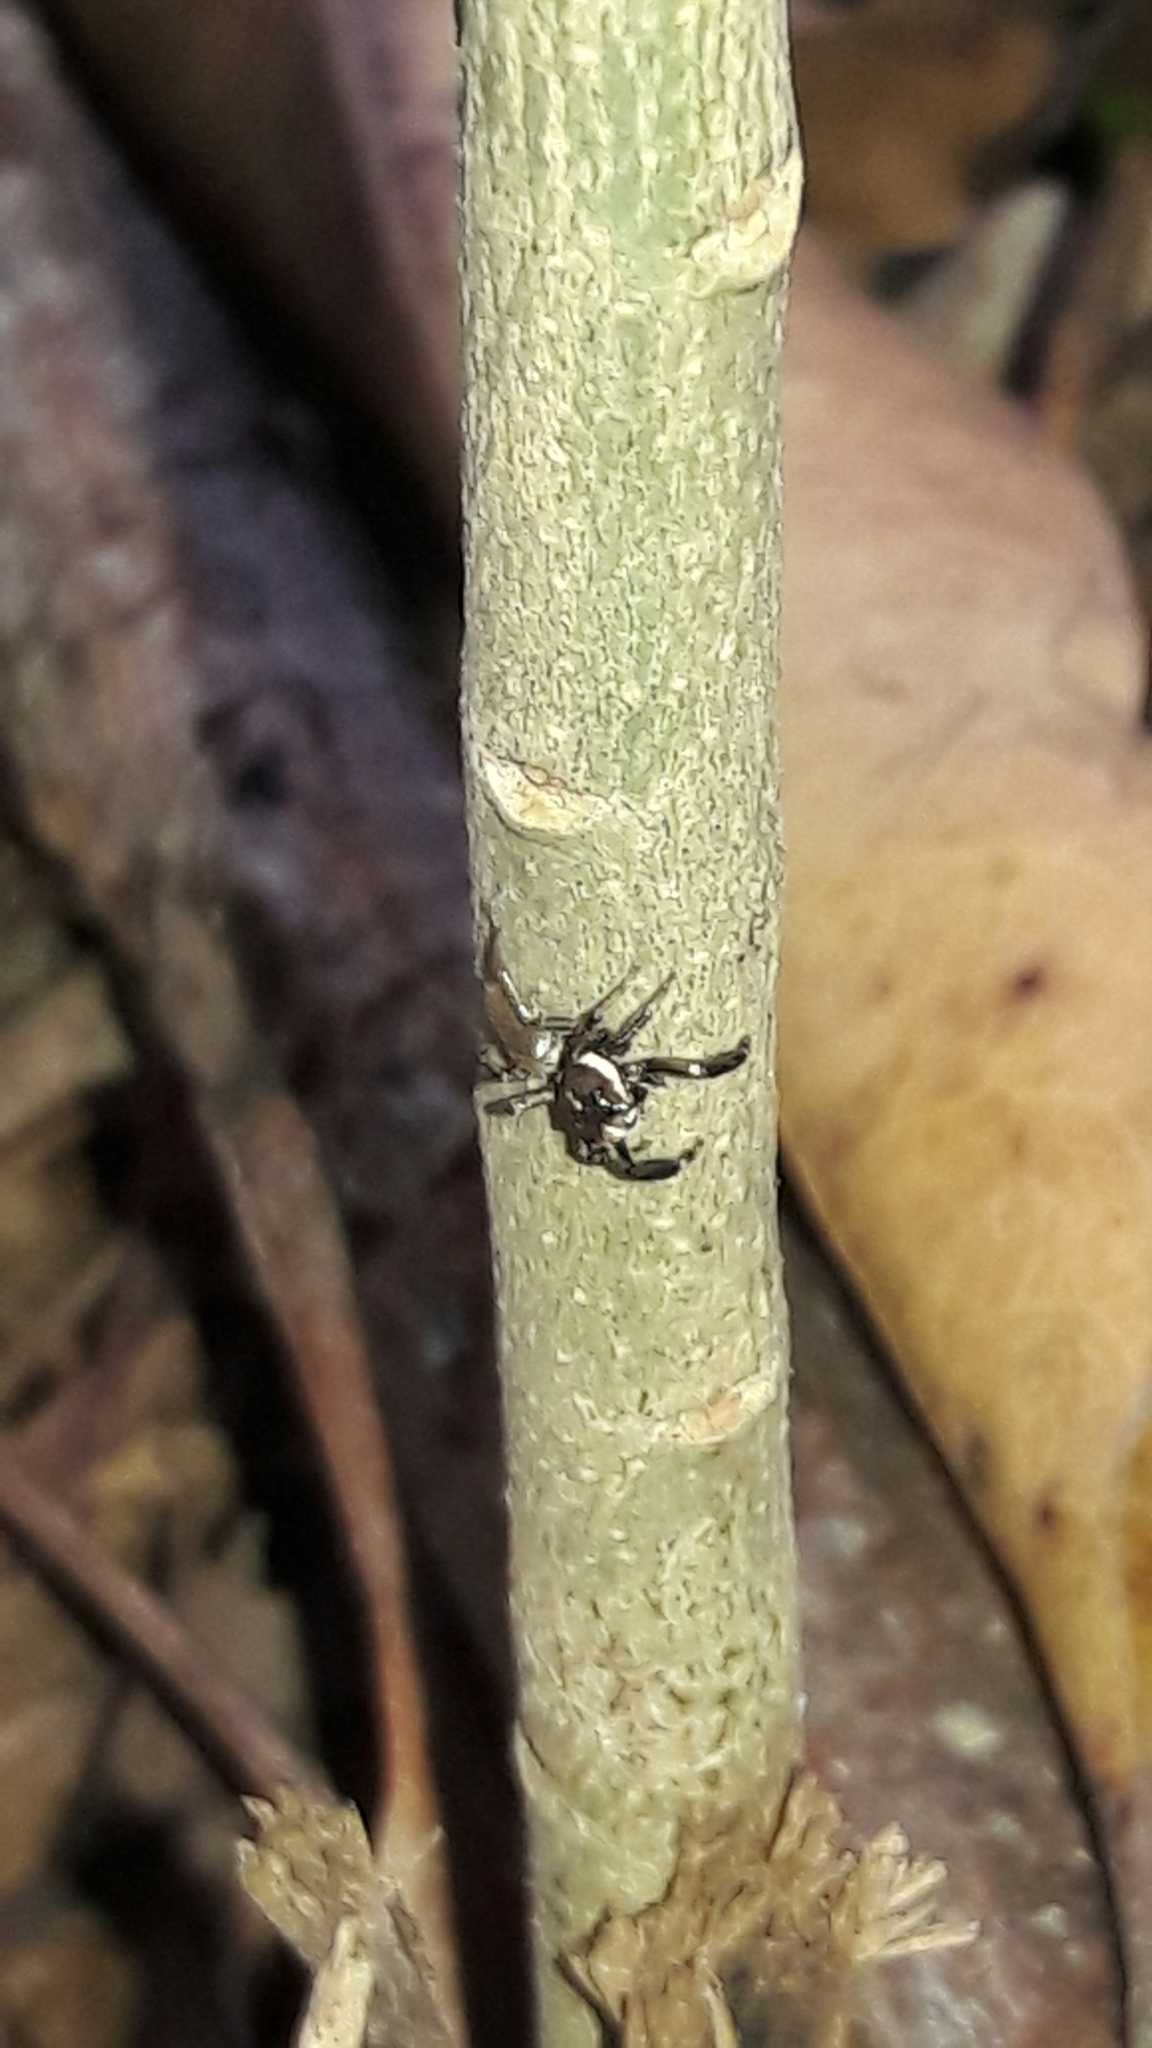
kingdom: Animalia
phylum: Arthropoda
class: Arachnida
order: Araneae
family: Salticidae
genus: Philira
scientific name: Philira micans
